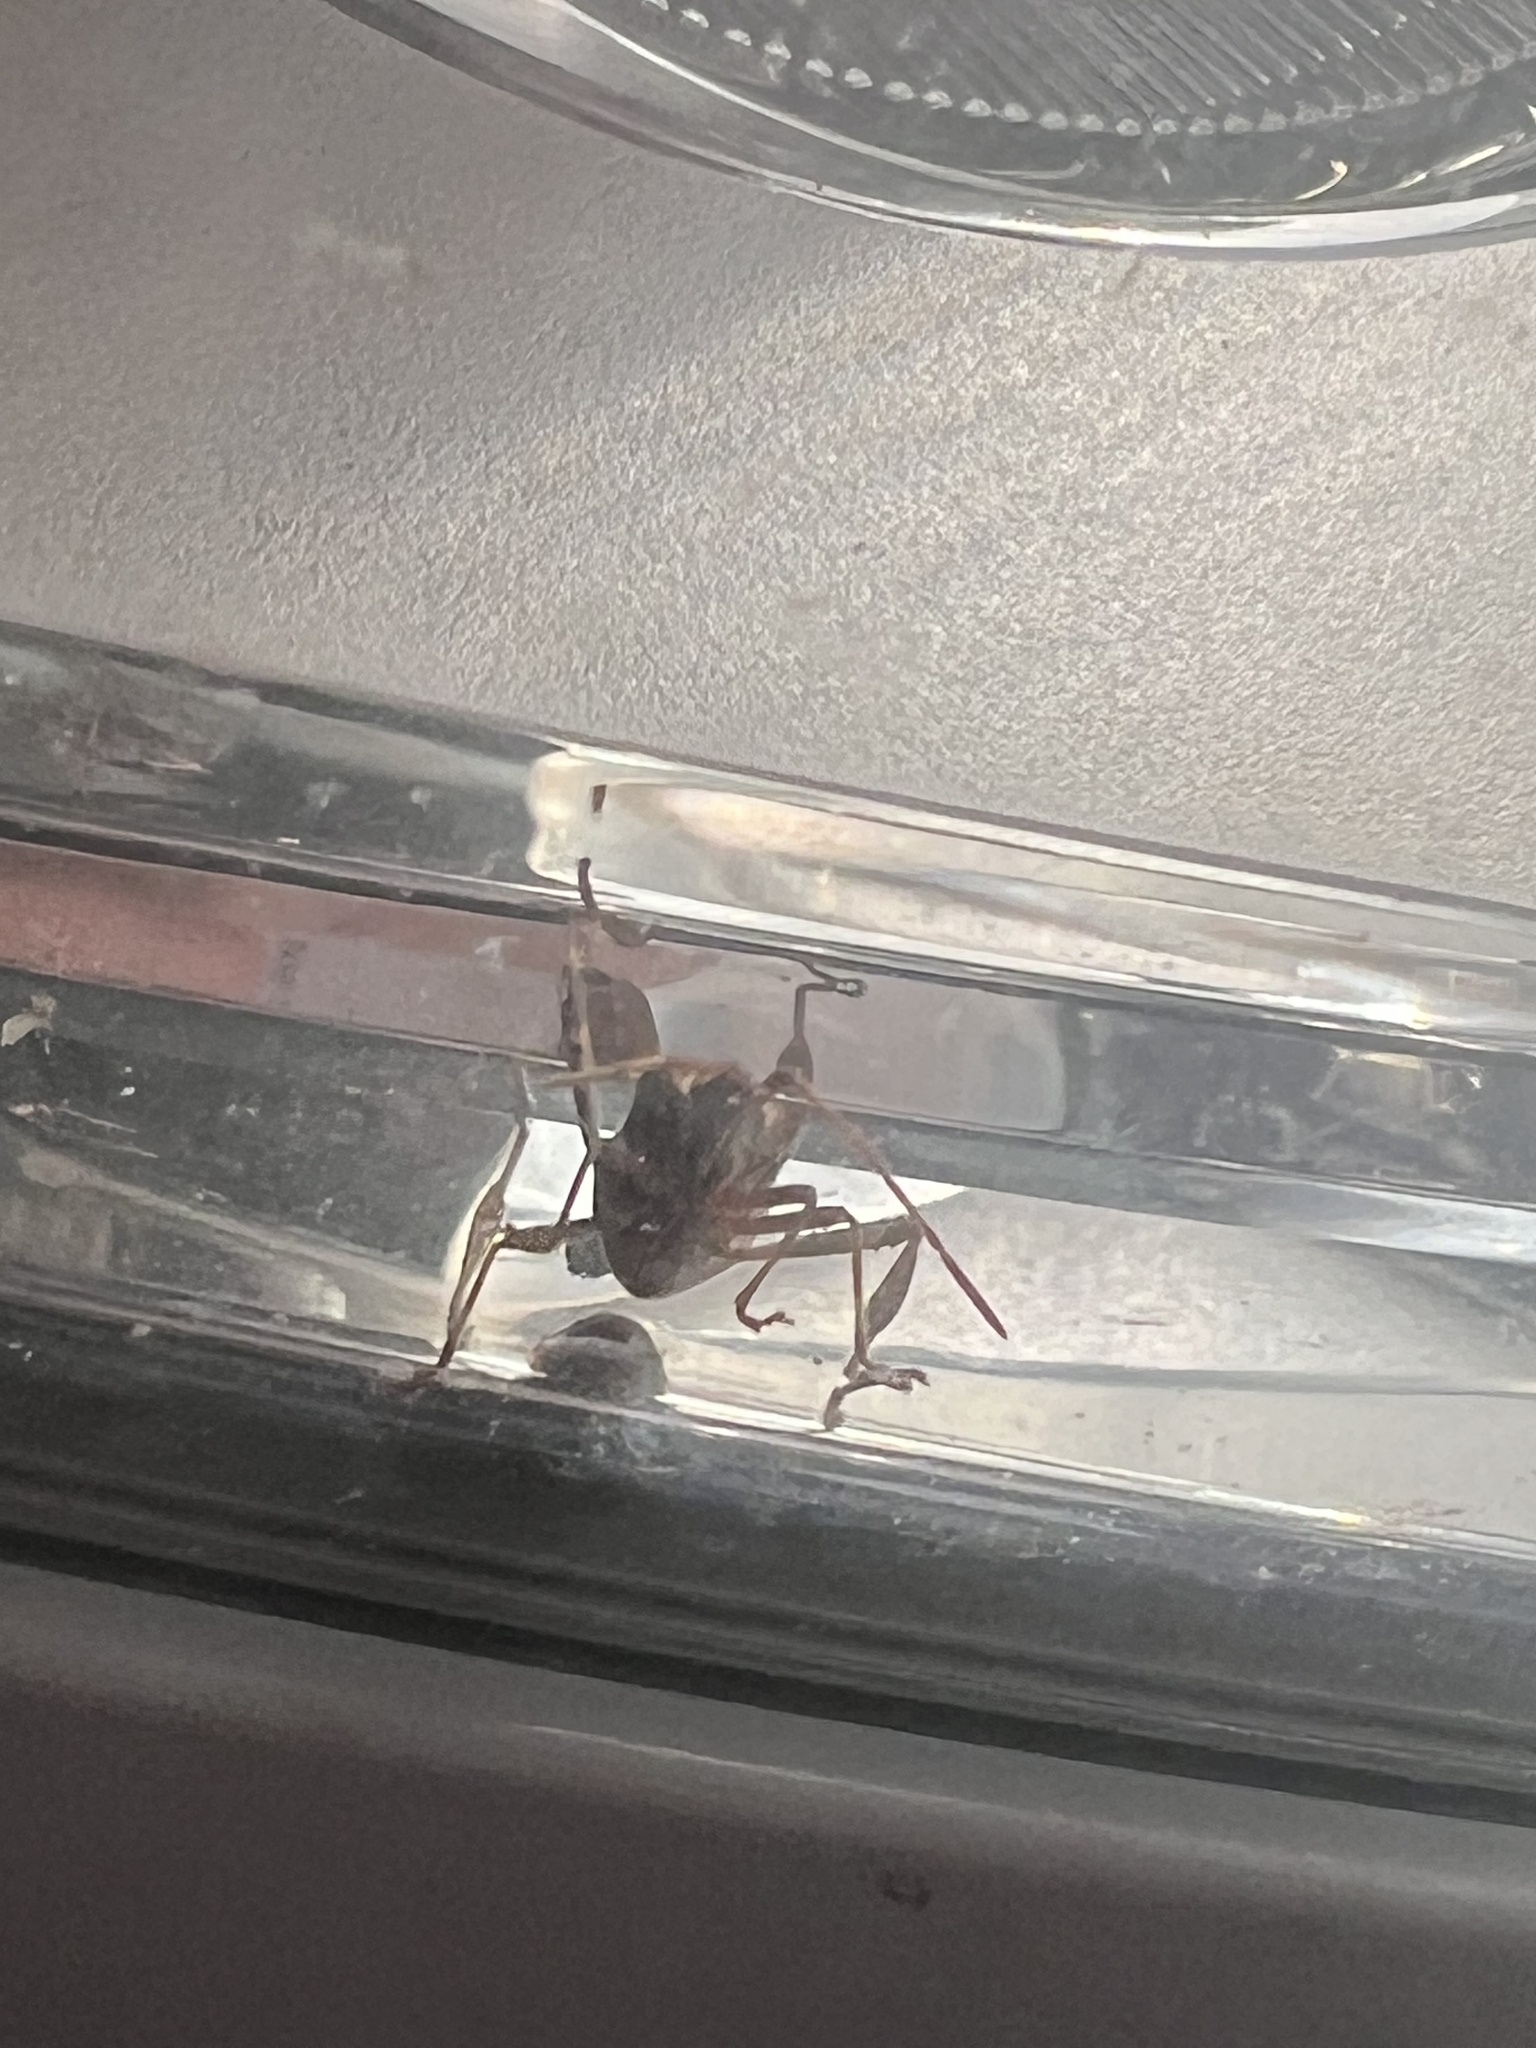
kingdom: Animalia
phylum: Arthropoda
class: Insecta
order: Hemiptera
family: Coreidae
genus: Leptoglossus
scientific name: Leptoglossus occidentalis
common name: Western conifer-seed bug
